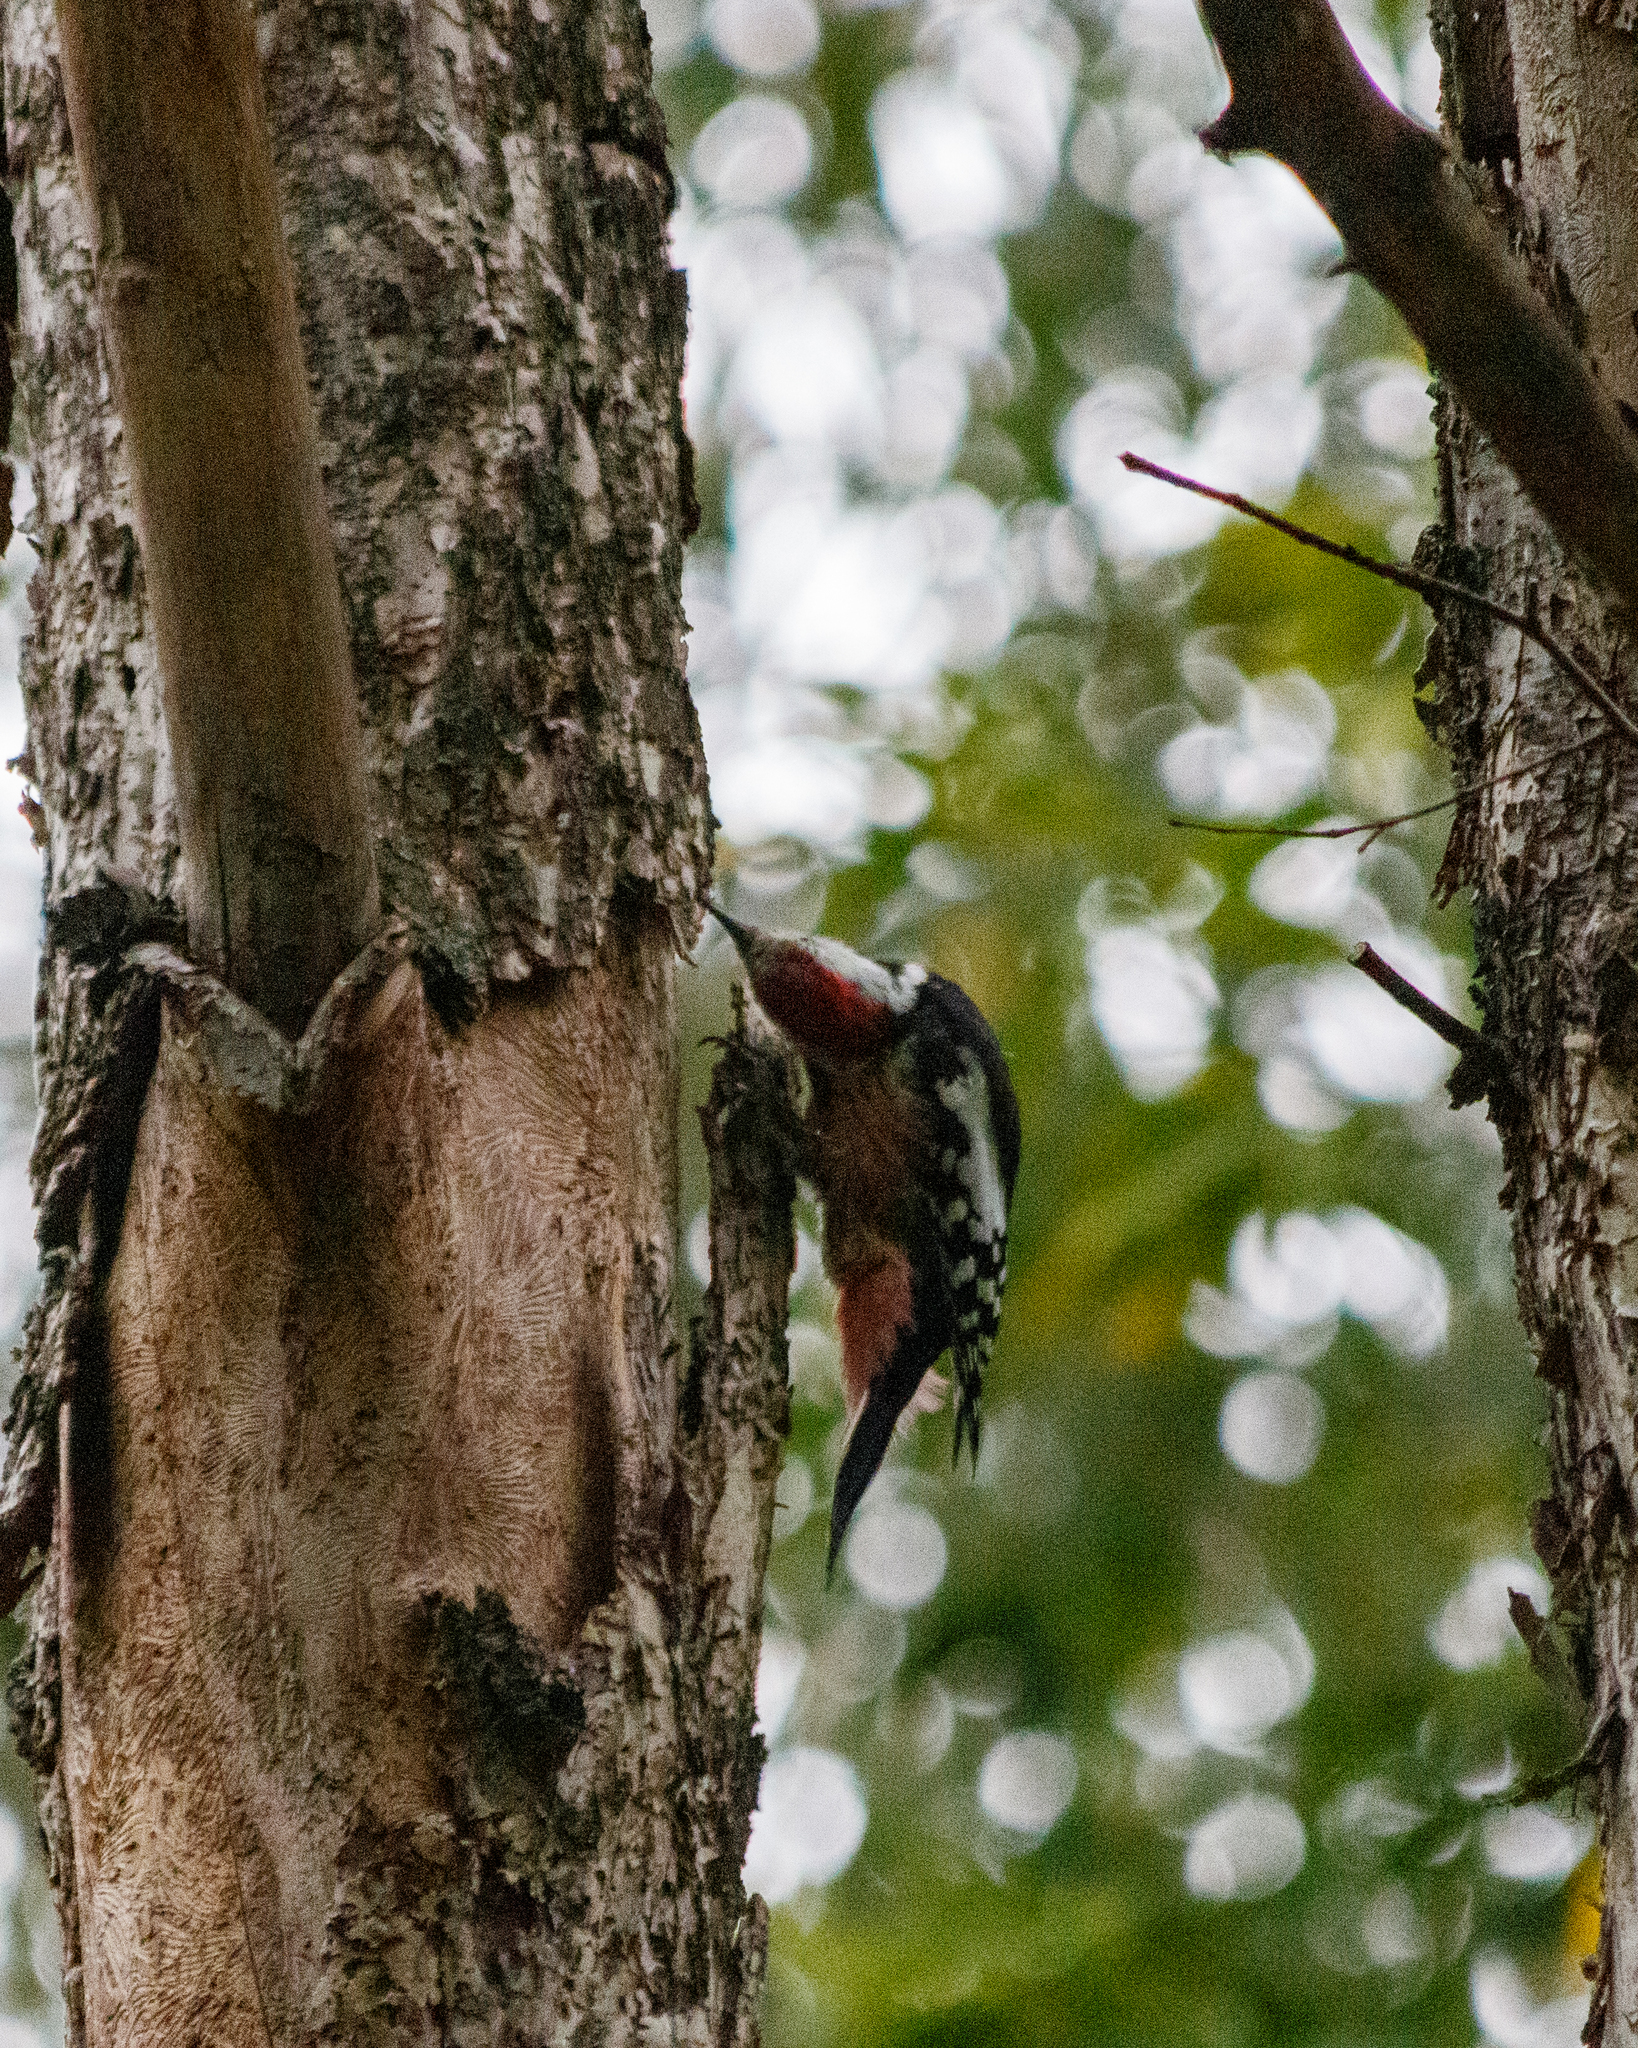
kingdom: Animalia
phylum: Chordata
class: Aves
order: Piciformes
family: Picidae
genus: Dendrocoptes
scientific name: Dendrocoptes medius
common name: Middle spotted woodpecker
